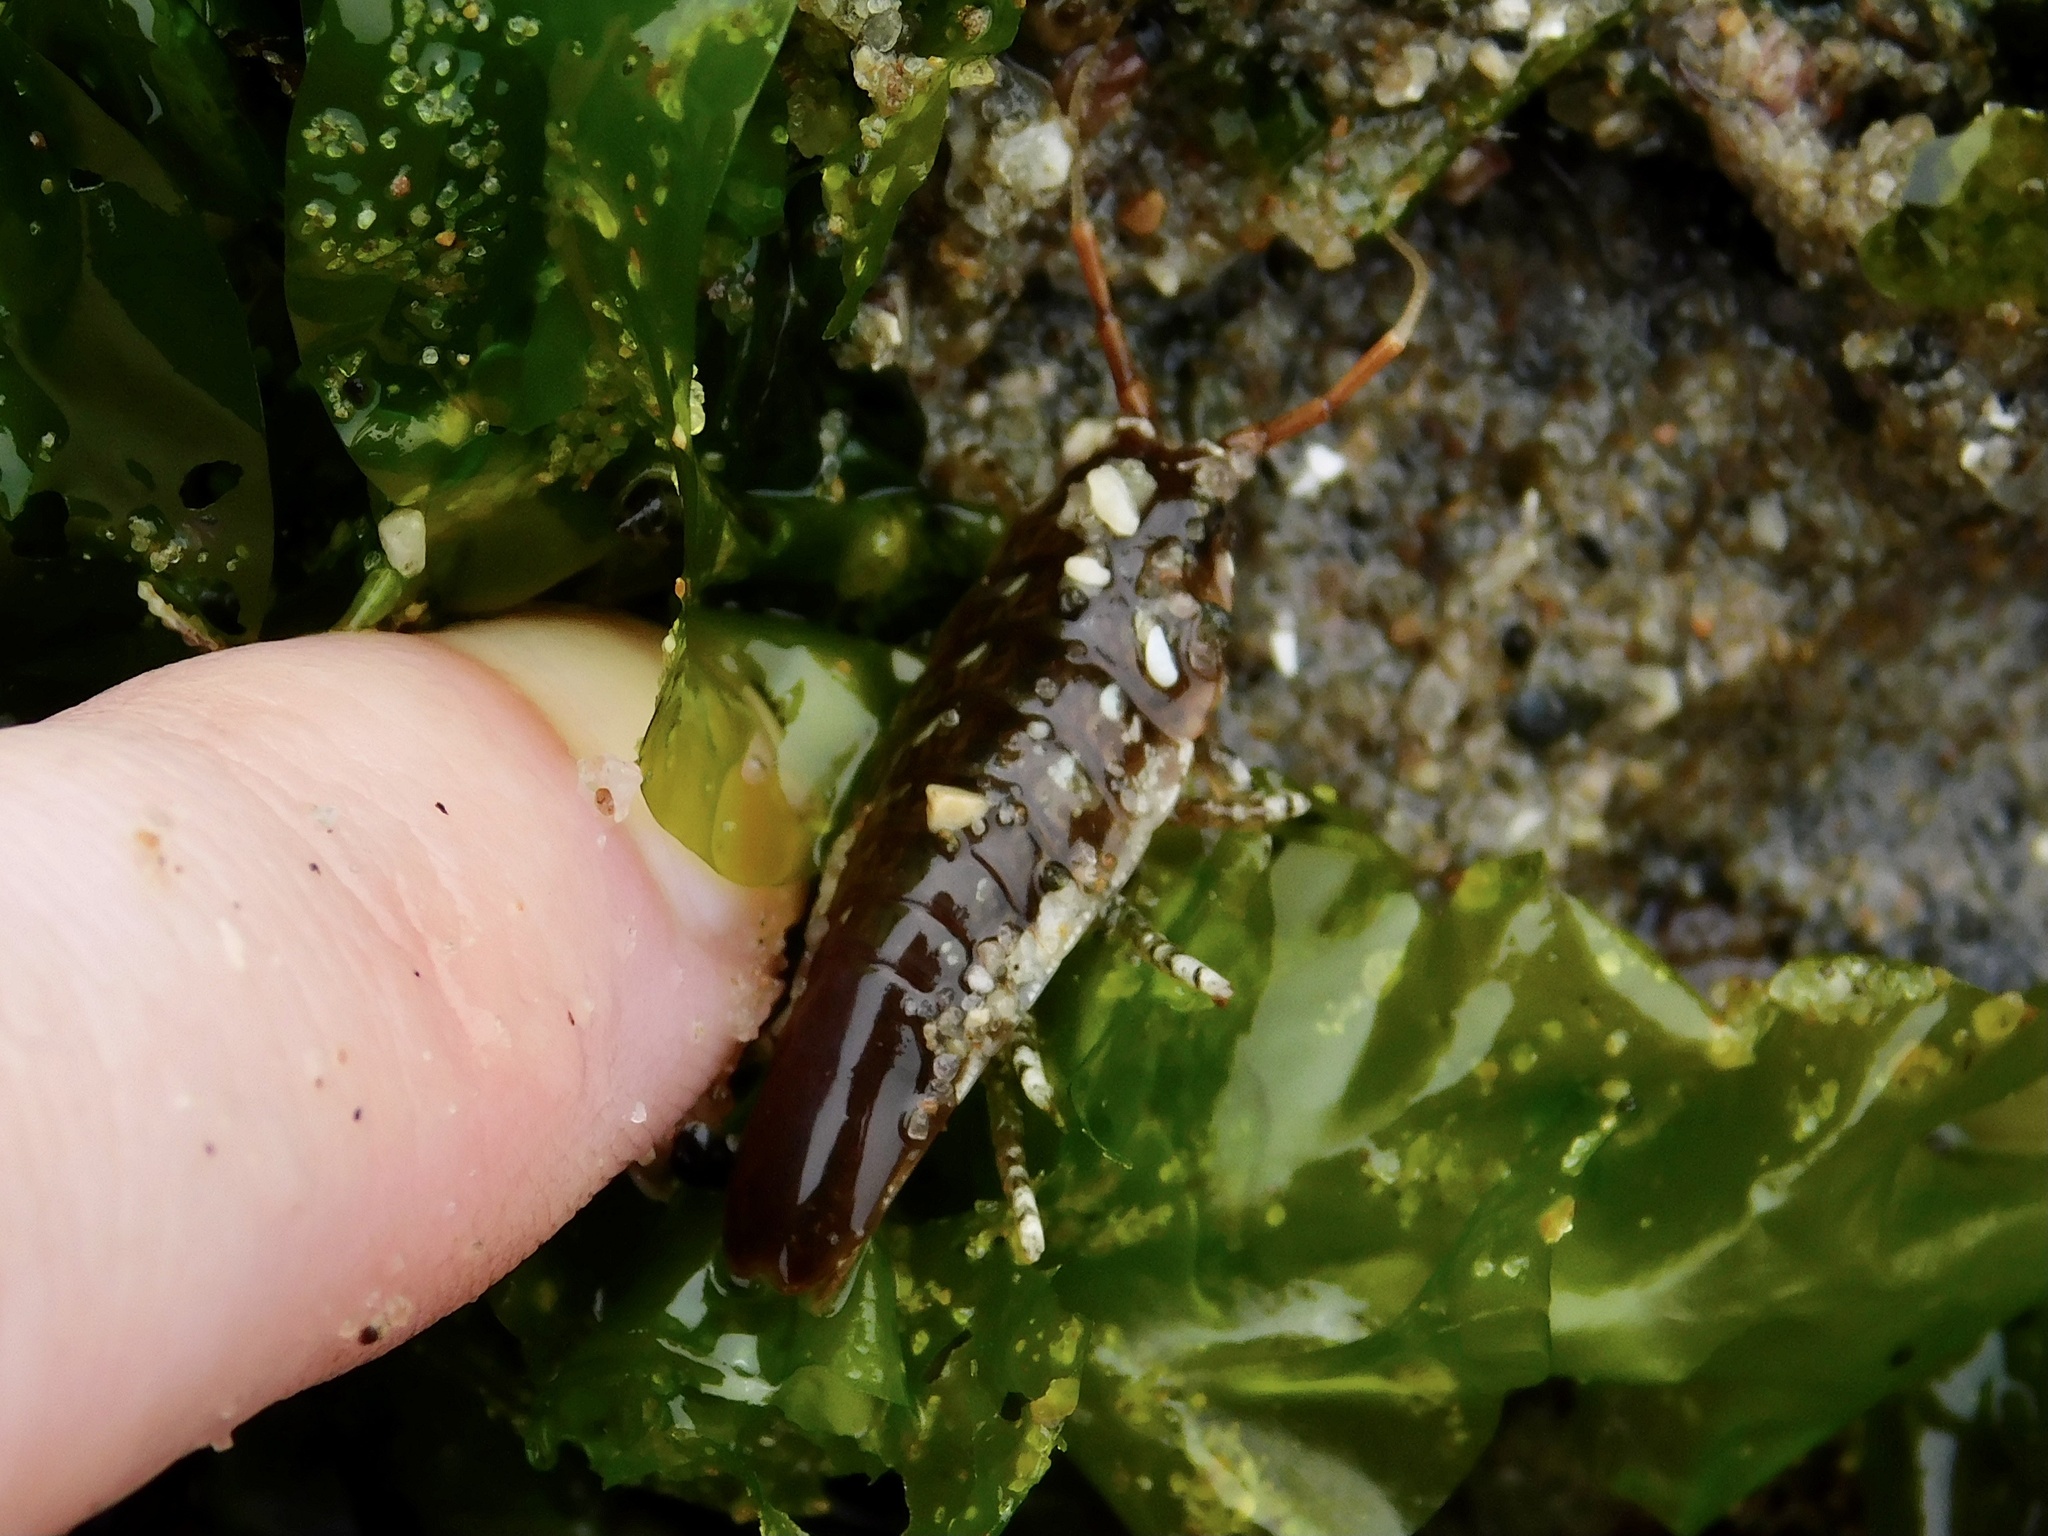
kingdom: Animalia
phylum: Arthropoda
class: Malacostraca
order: Isopoda
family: Idoteidae
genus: Synidotea
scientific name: Synidotea harfordi
